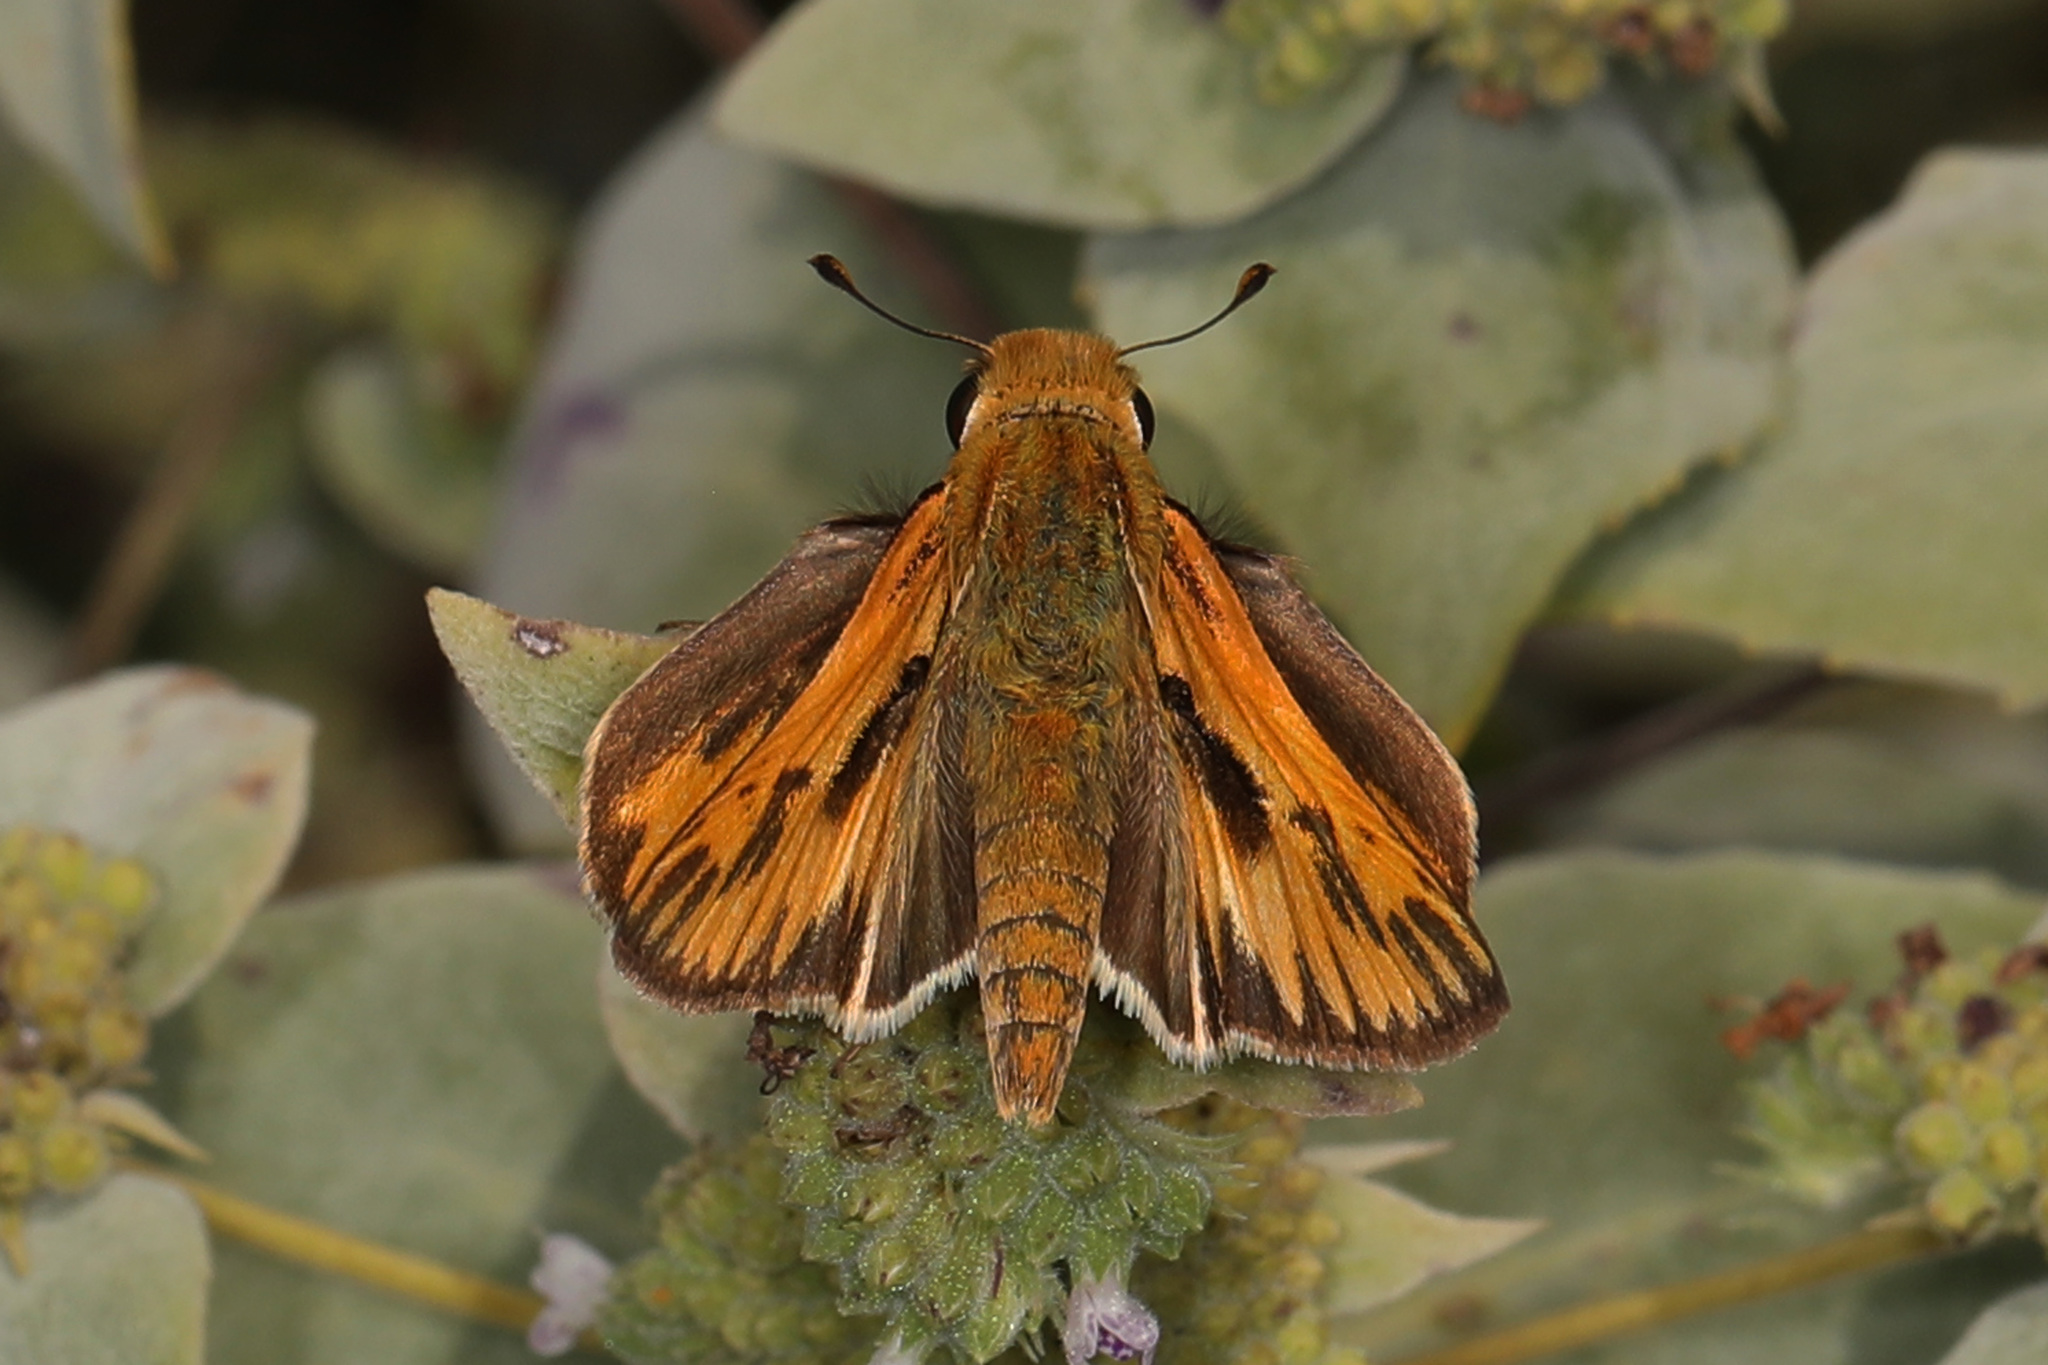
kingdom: Animalia
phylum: Arthropoda
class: Insecta
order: Lepidoptera
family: Hesperiidae
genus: Hylephila
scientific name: Hylephila phyleus
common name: Fiery skipper
